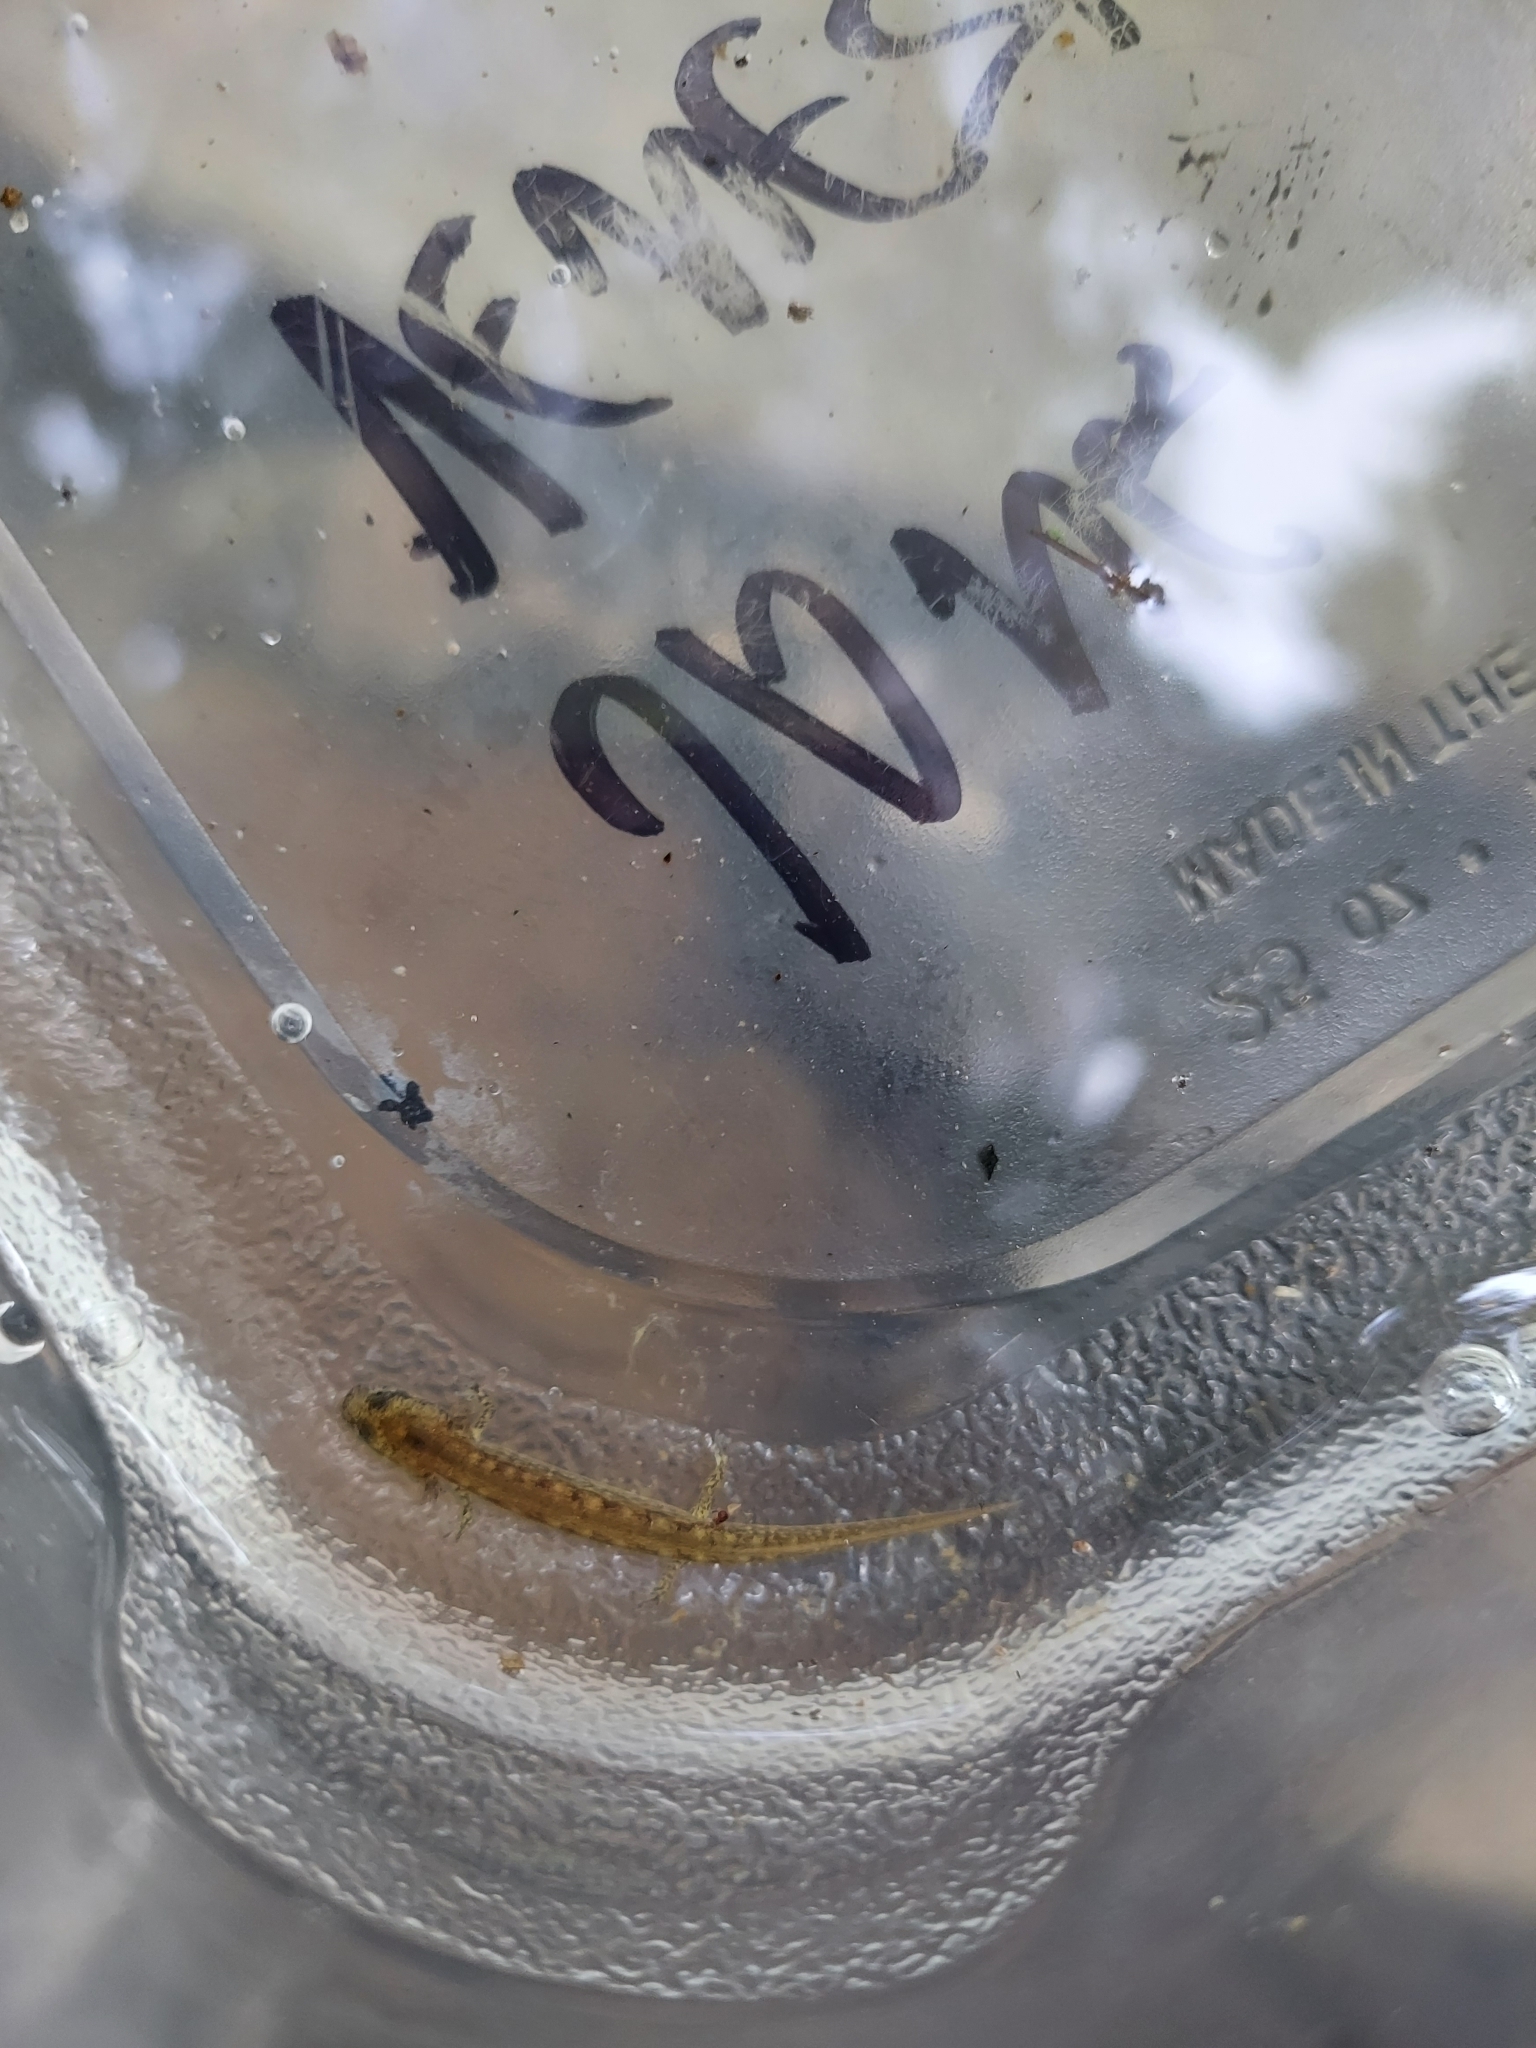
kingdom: Animalia
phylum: Chordata
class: Amphibia
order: Caudata
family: Plethodontidae
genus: Eurycea
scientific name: Eurycea bislineata
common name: Northern two-lined salamander
